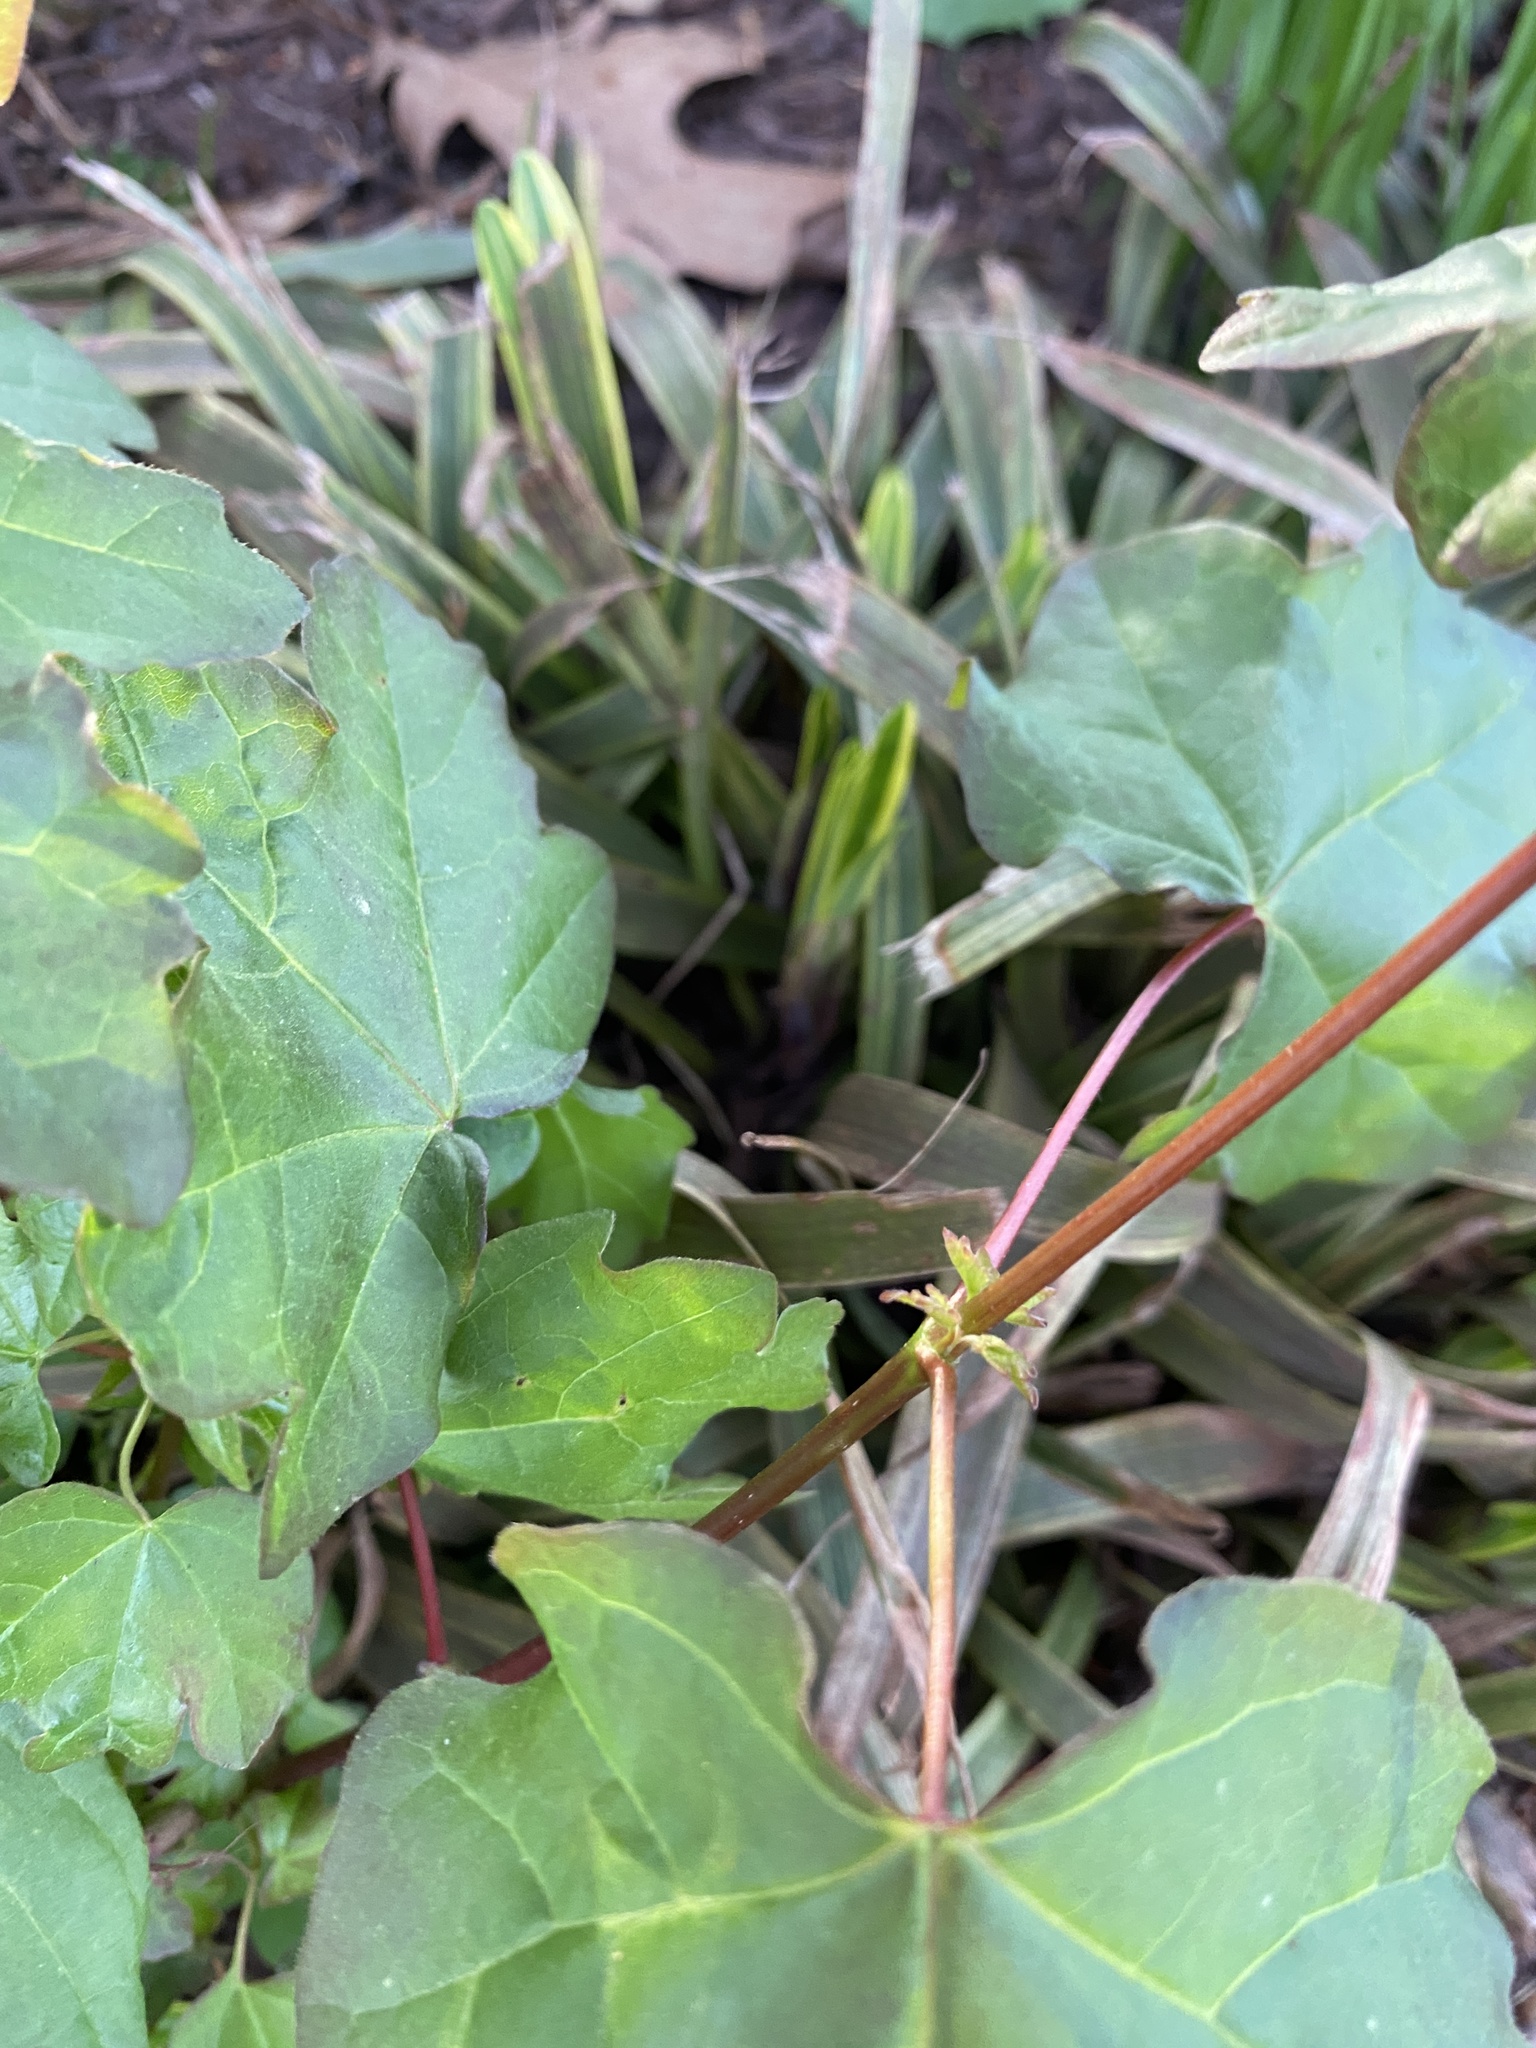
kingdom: Plantae
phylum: Tracheophyta
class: Magnoliopsida
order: Sapindales
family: Sapindaceae
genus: Acer
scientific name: Acer campestre
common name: Field maple
